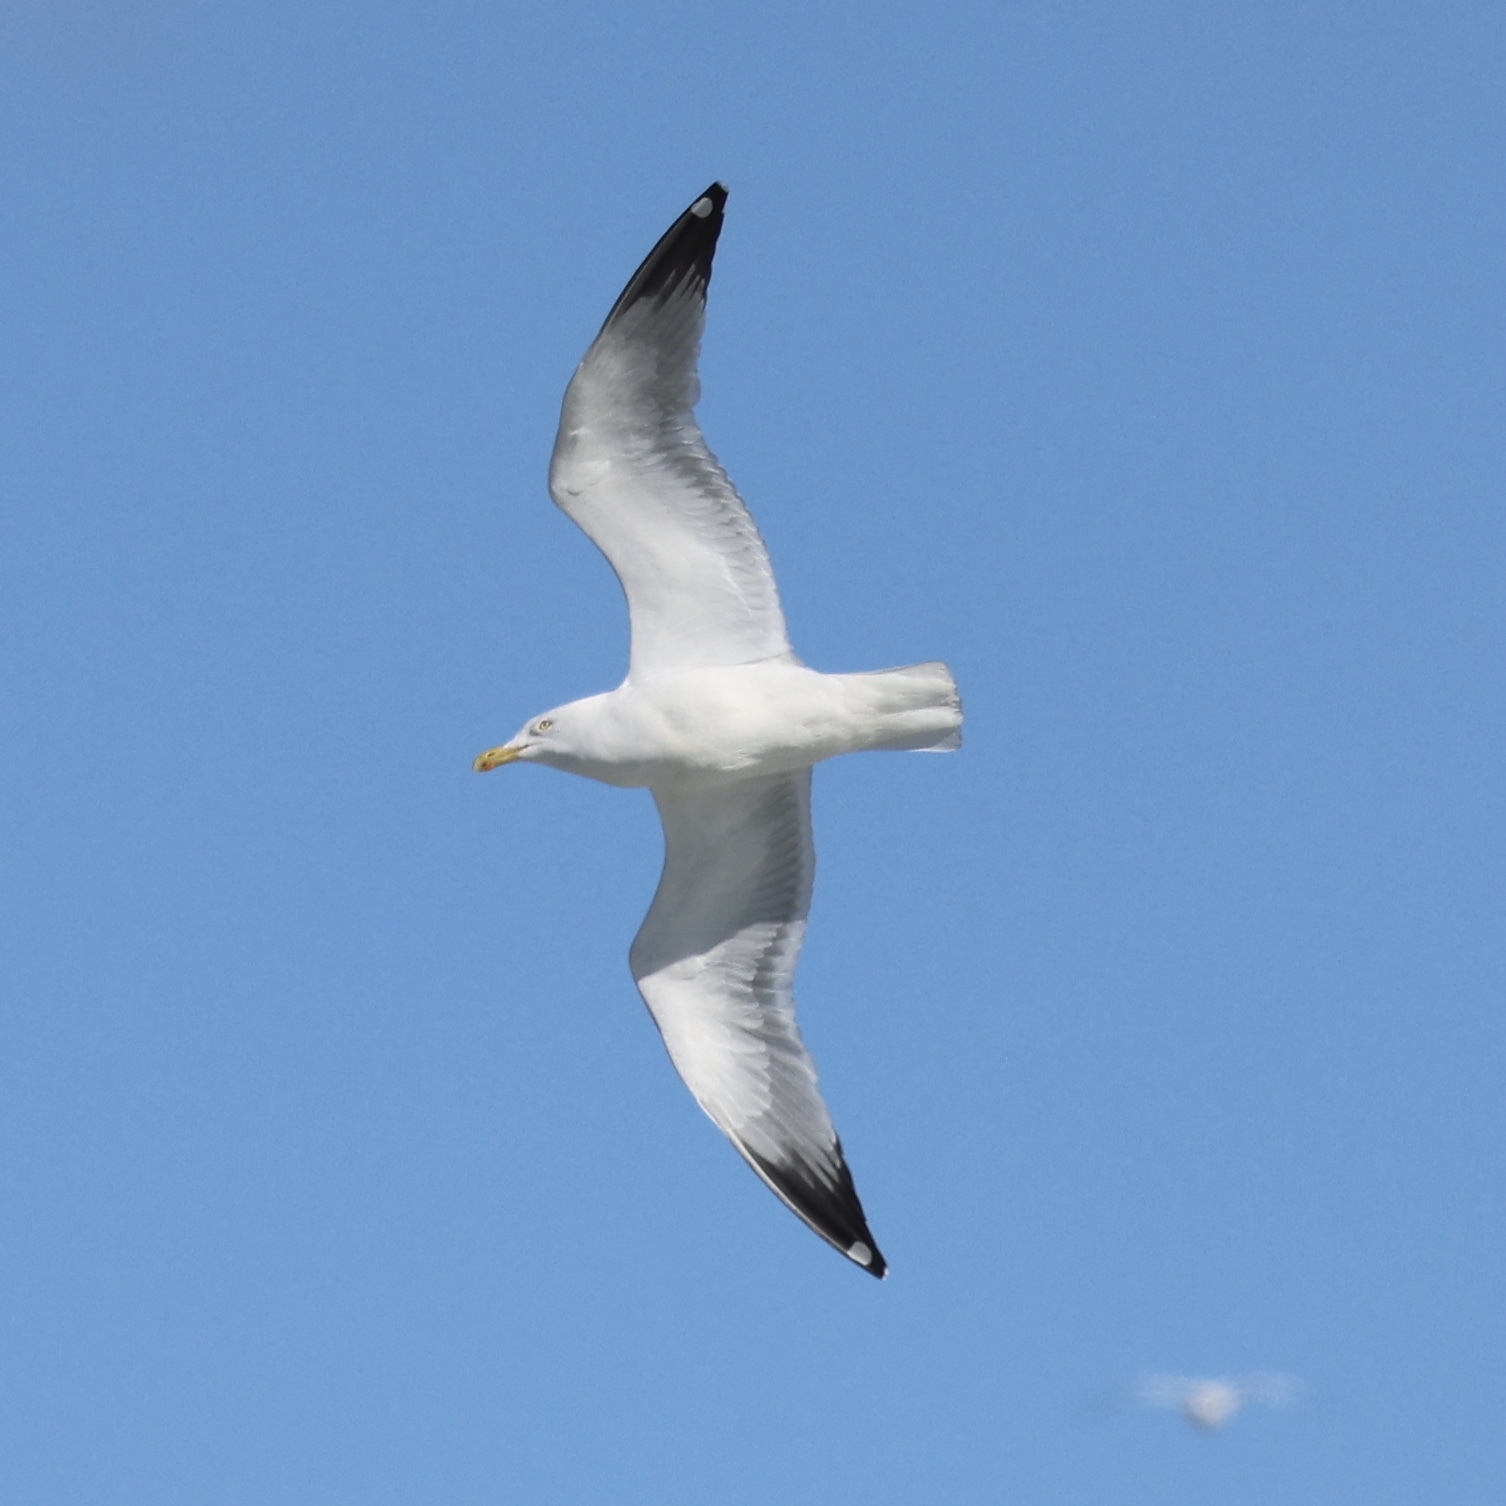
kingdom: Animalia
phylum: Chordata
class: Aves
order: Charadriiformes
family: Laridae
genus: Larus
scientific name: Larus argentatus
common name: Herring gull
